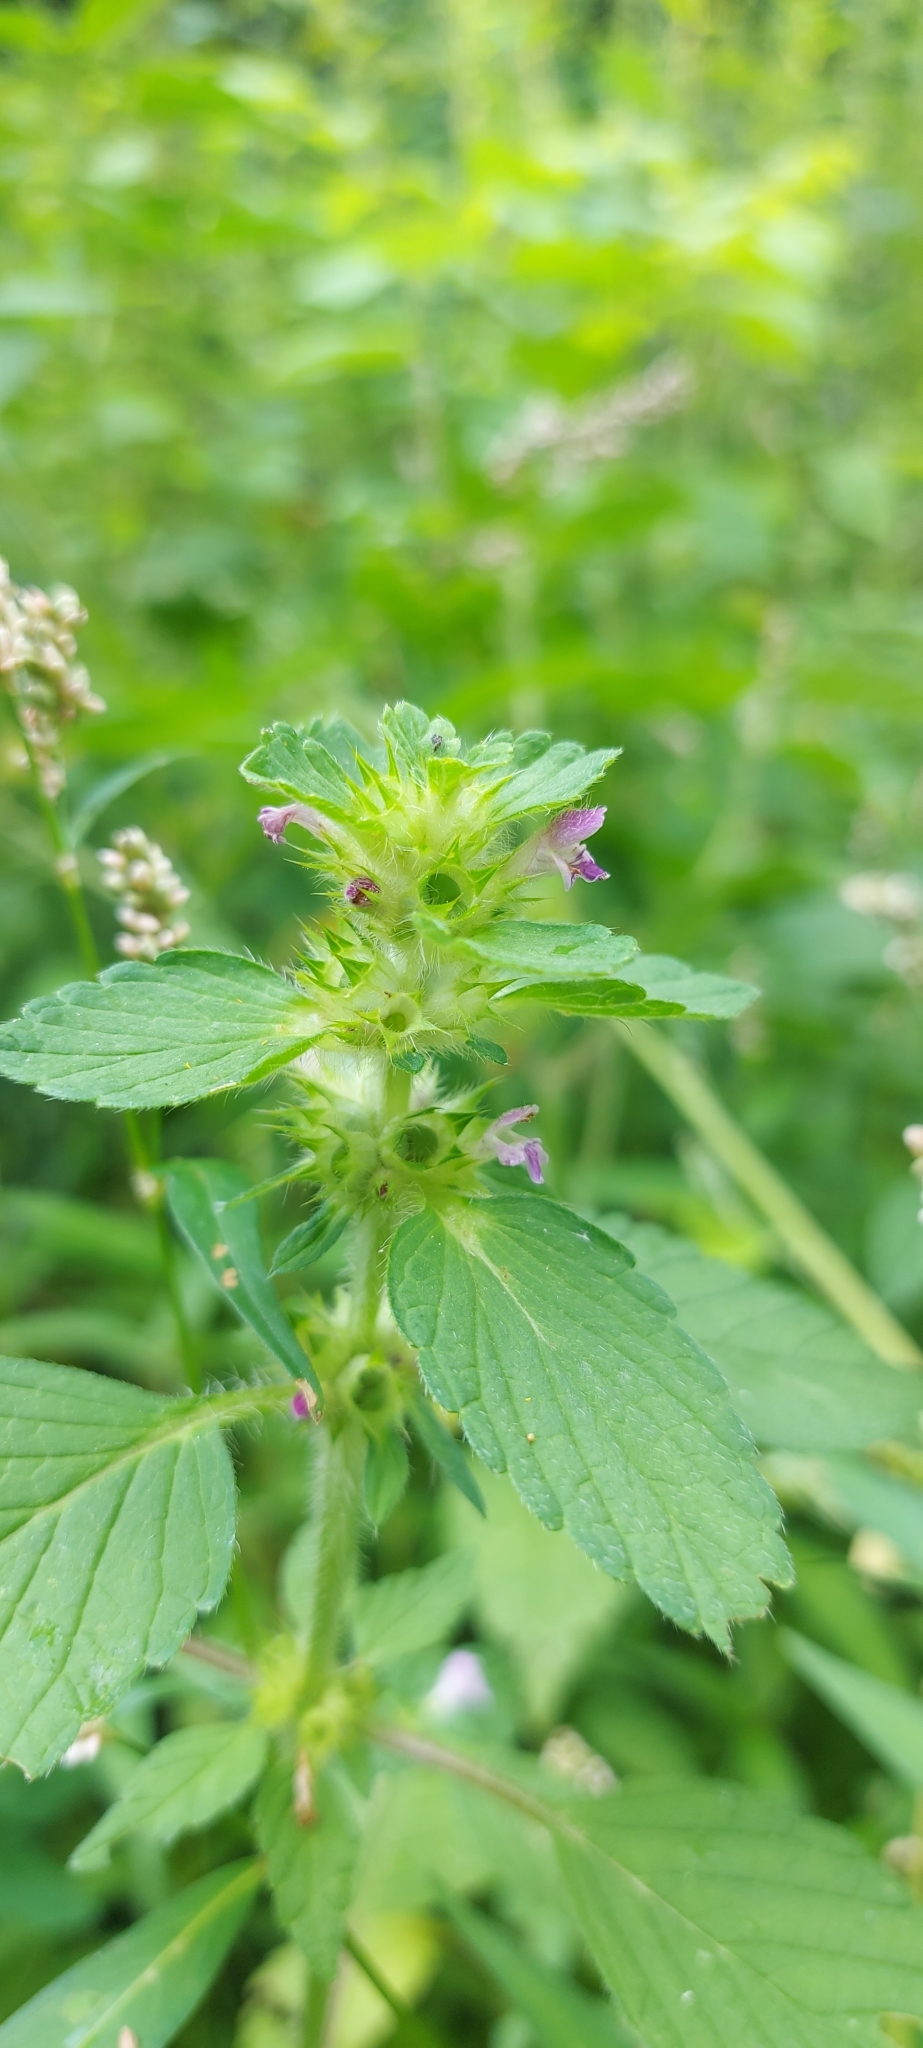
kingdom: Plantae
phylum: Tracheophyta
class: Magnoliopsida
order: Lamiales
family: Lamiaceae
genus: Galeopsis
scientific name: Galeopsis bifida
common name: Bifid hemp-nettle
